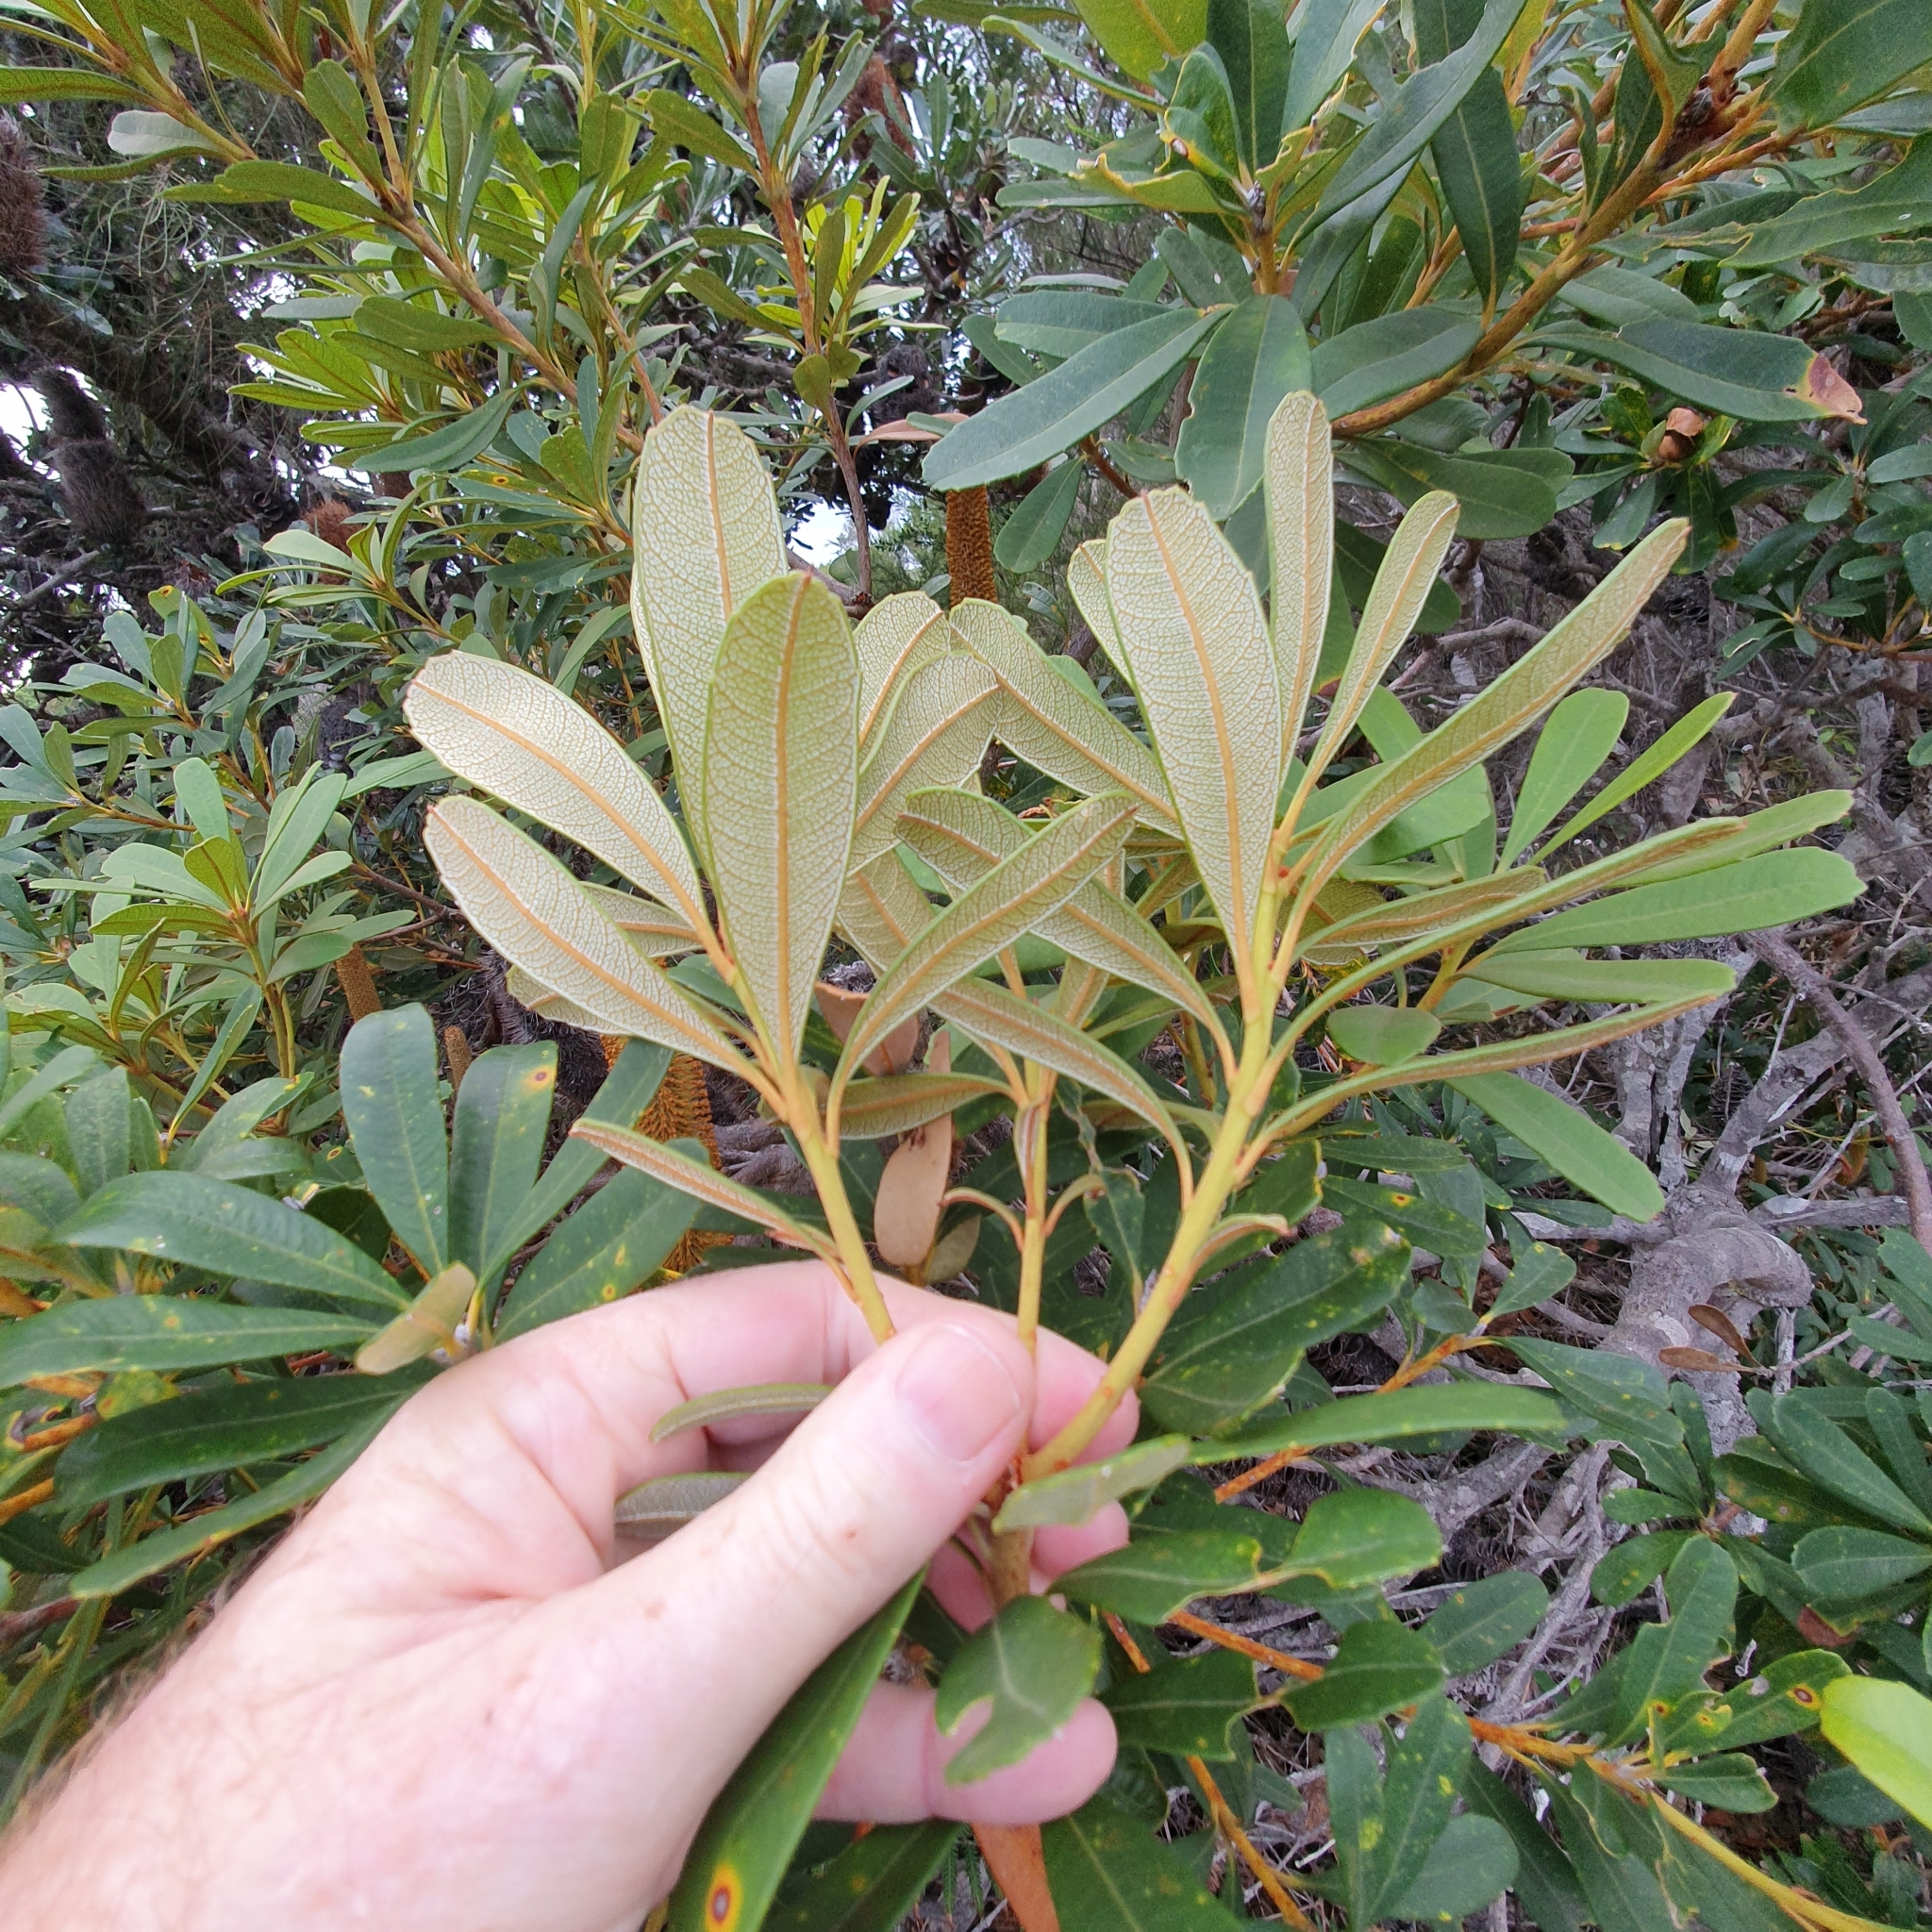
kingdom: Plantae
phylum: Tracheophyta
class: Magnoliopsida
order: Proteales
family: Proteaceae
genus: Banksia
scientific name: Banksia paludosa
